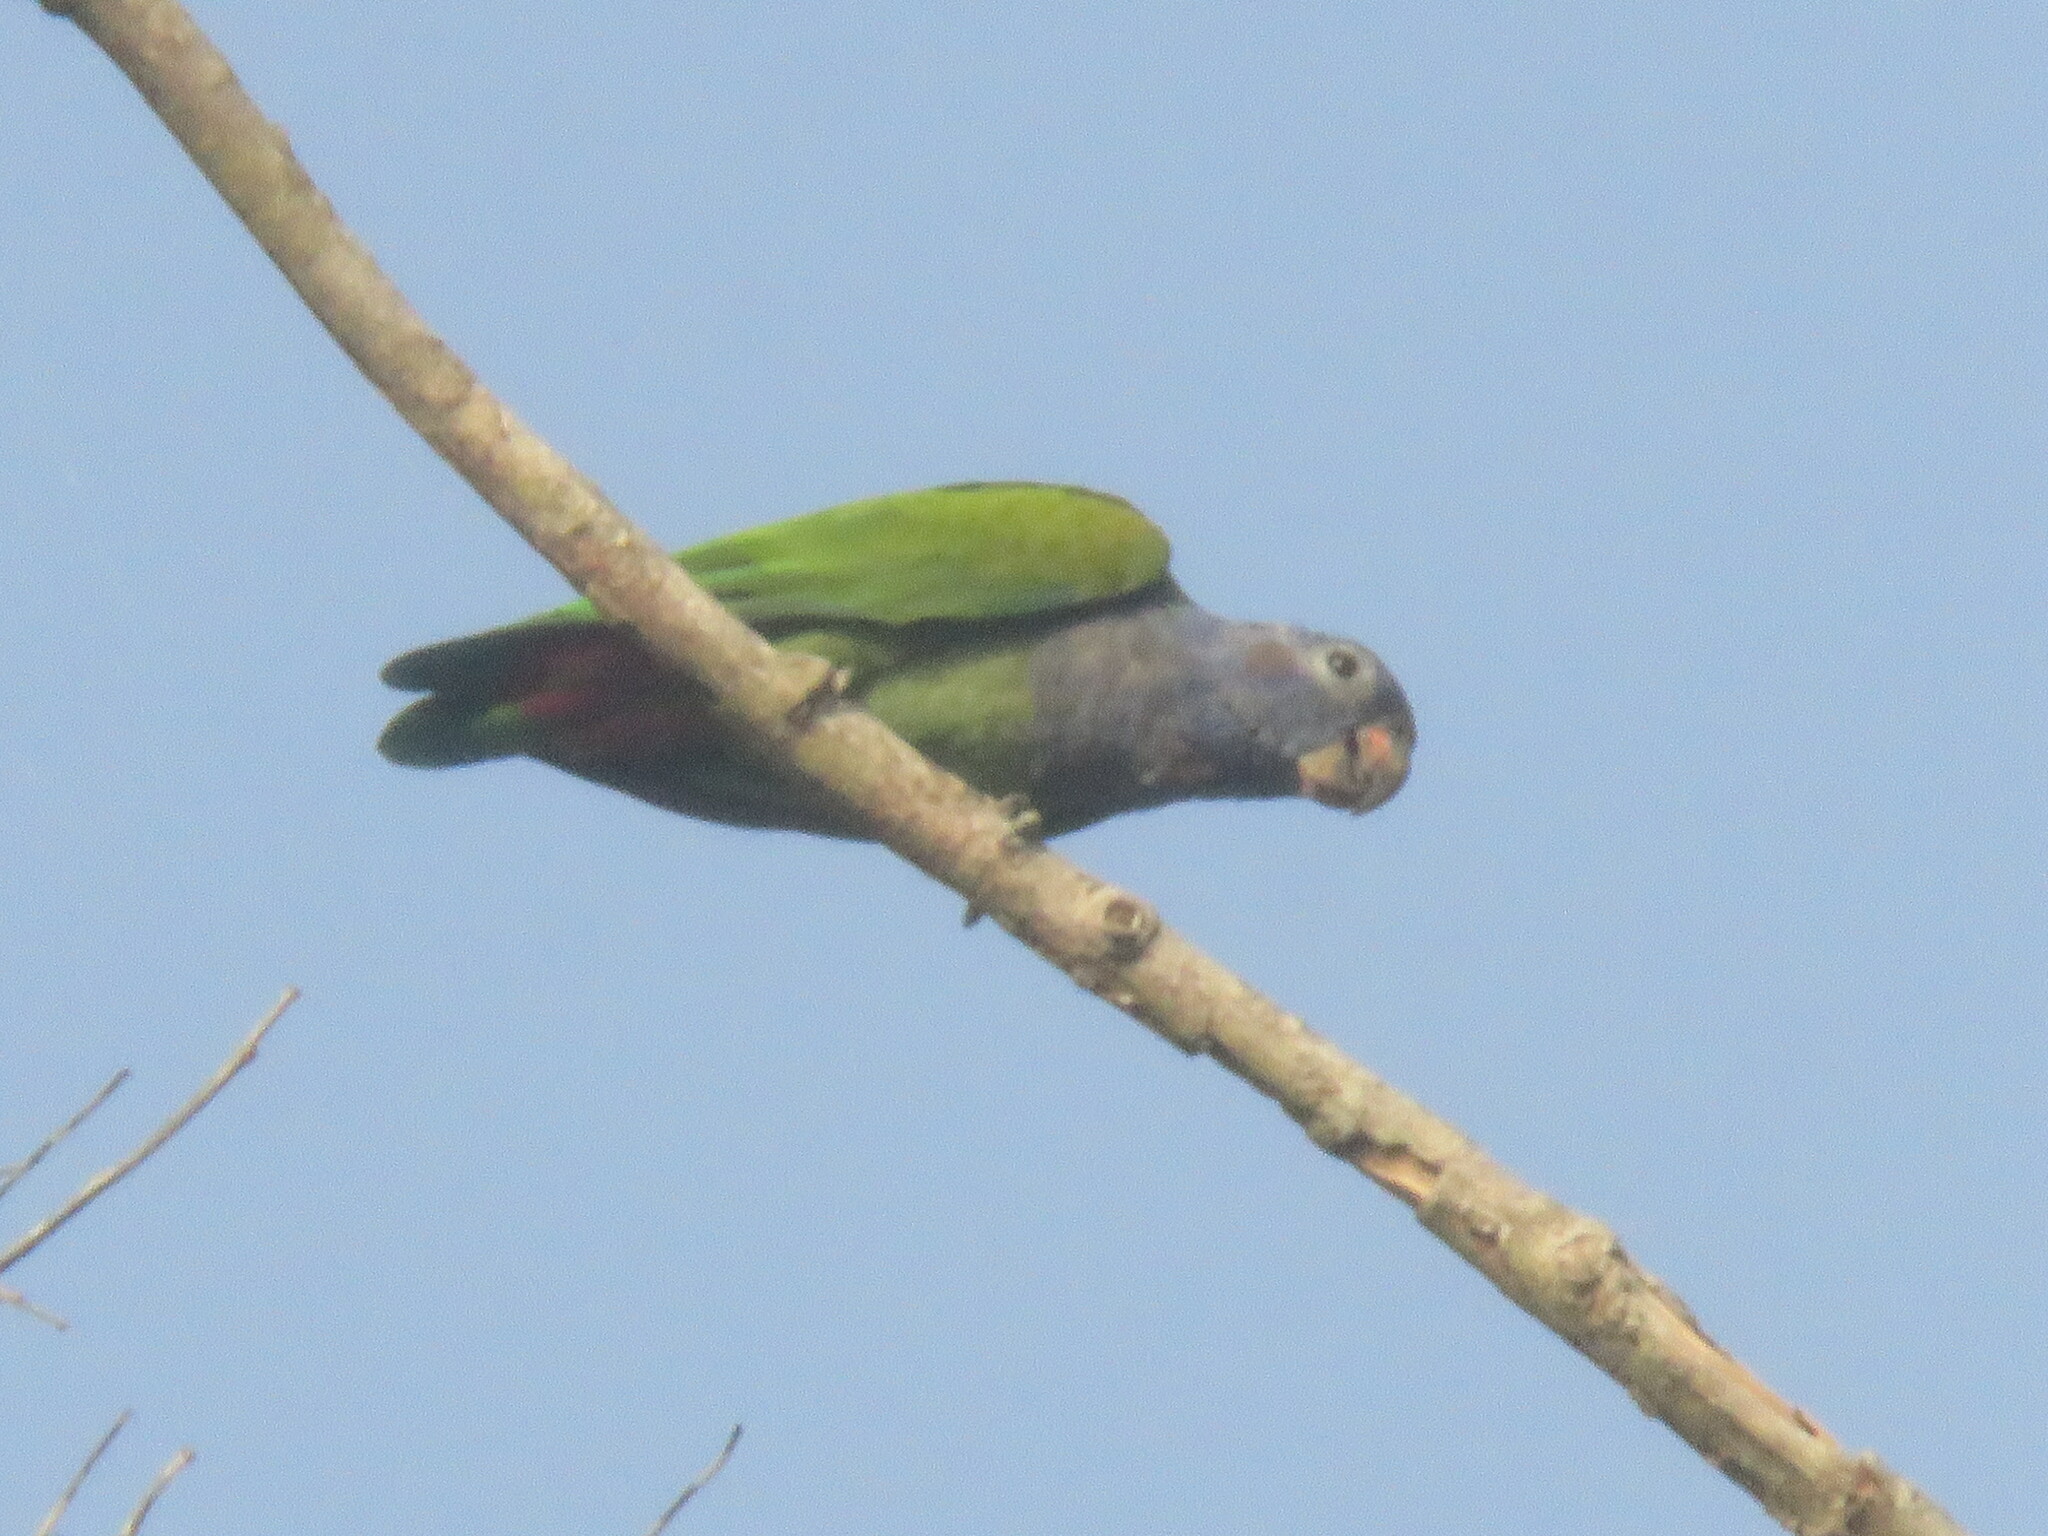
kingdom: Animalia
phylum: Chordata
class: Aves
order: Psittaciformes
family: Psittacidae
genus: Pionus
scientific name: Pionus menstruus
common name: Blue-headed parrot
